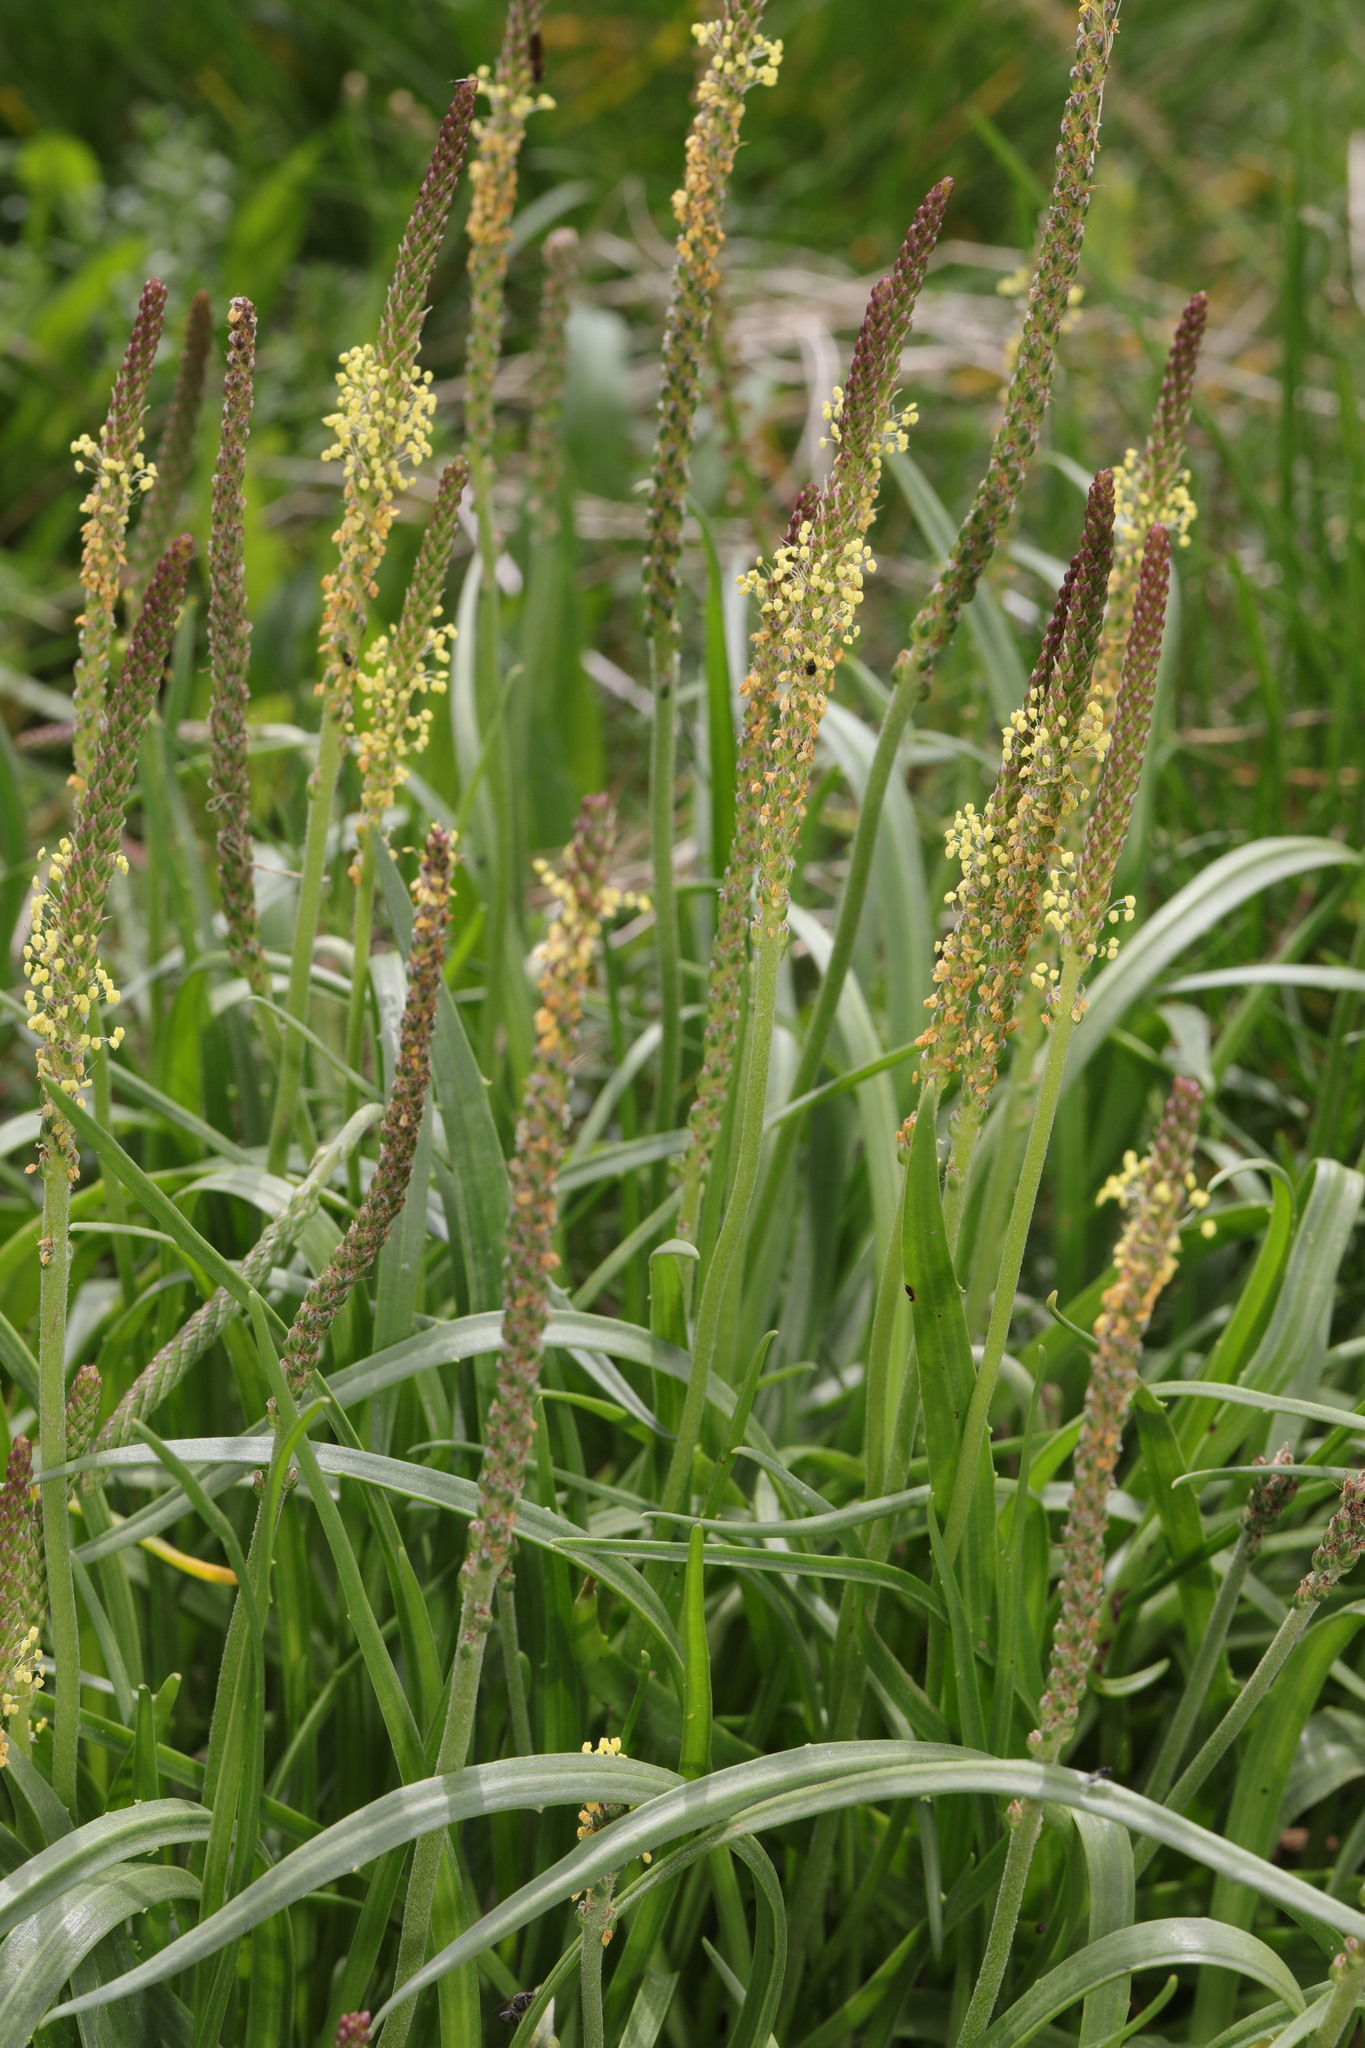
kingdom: Plantae
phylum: Tracheophyta
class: Magnoliopsida
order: Lamiales
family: Plantaginaceae
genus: Plantago
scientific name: Plantago maritima
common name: Sea plantain
